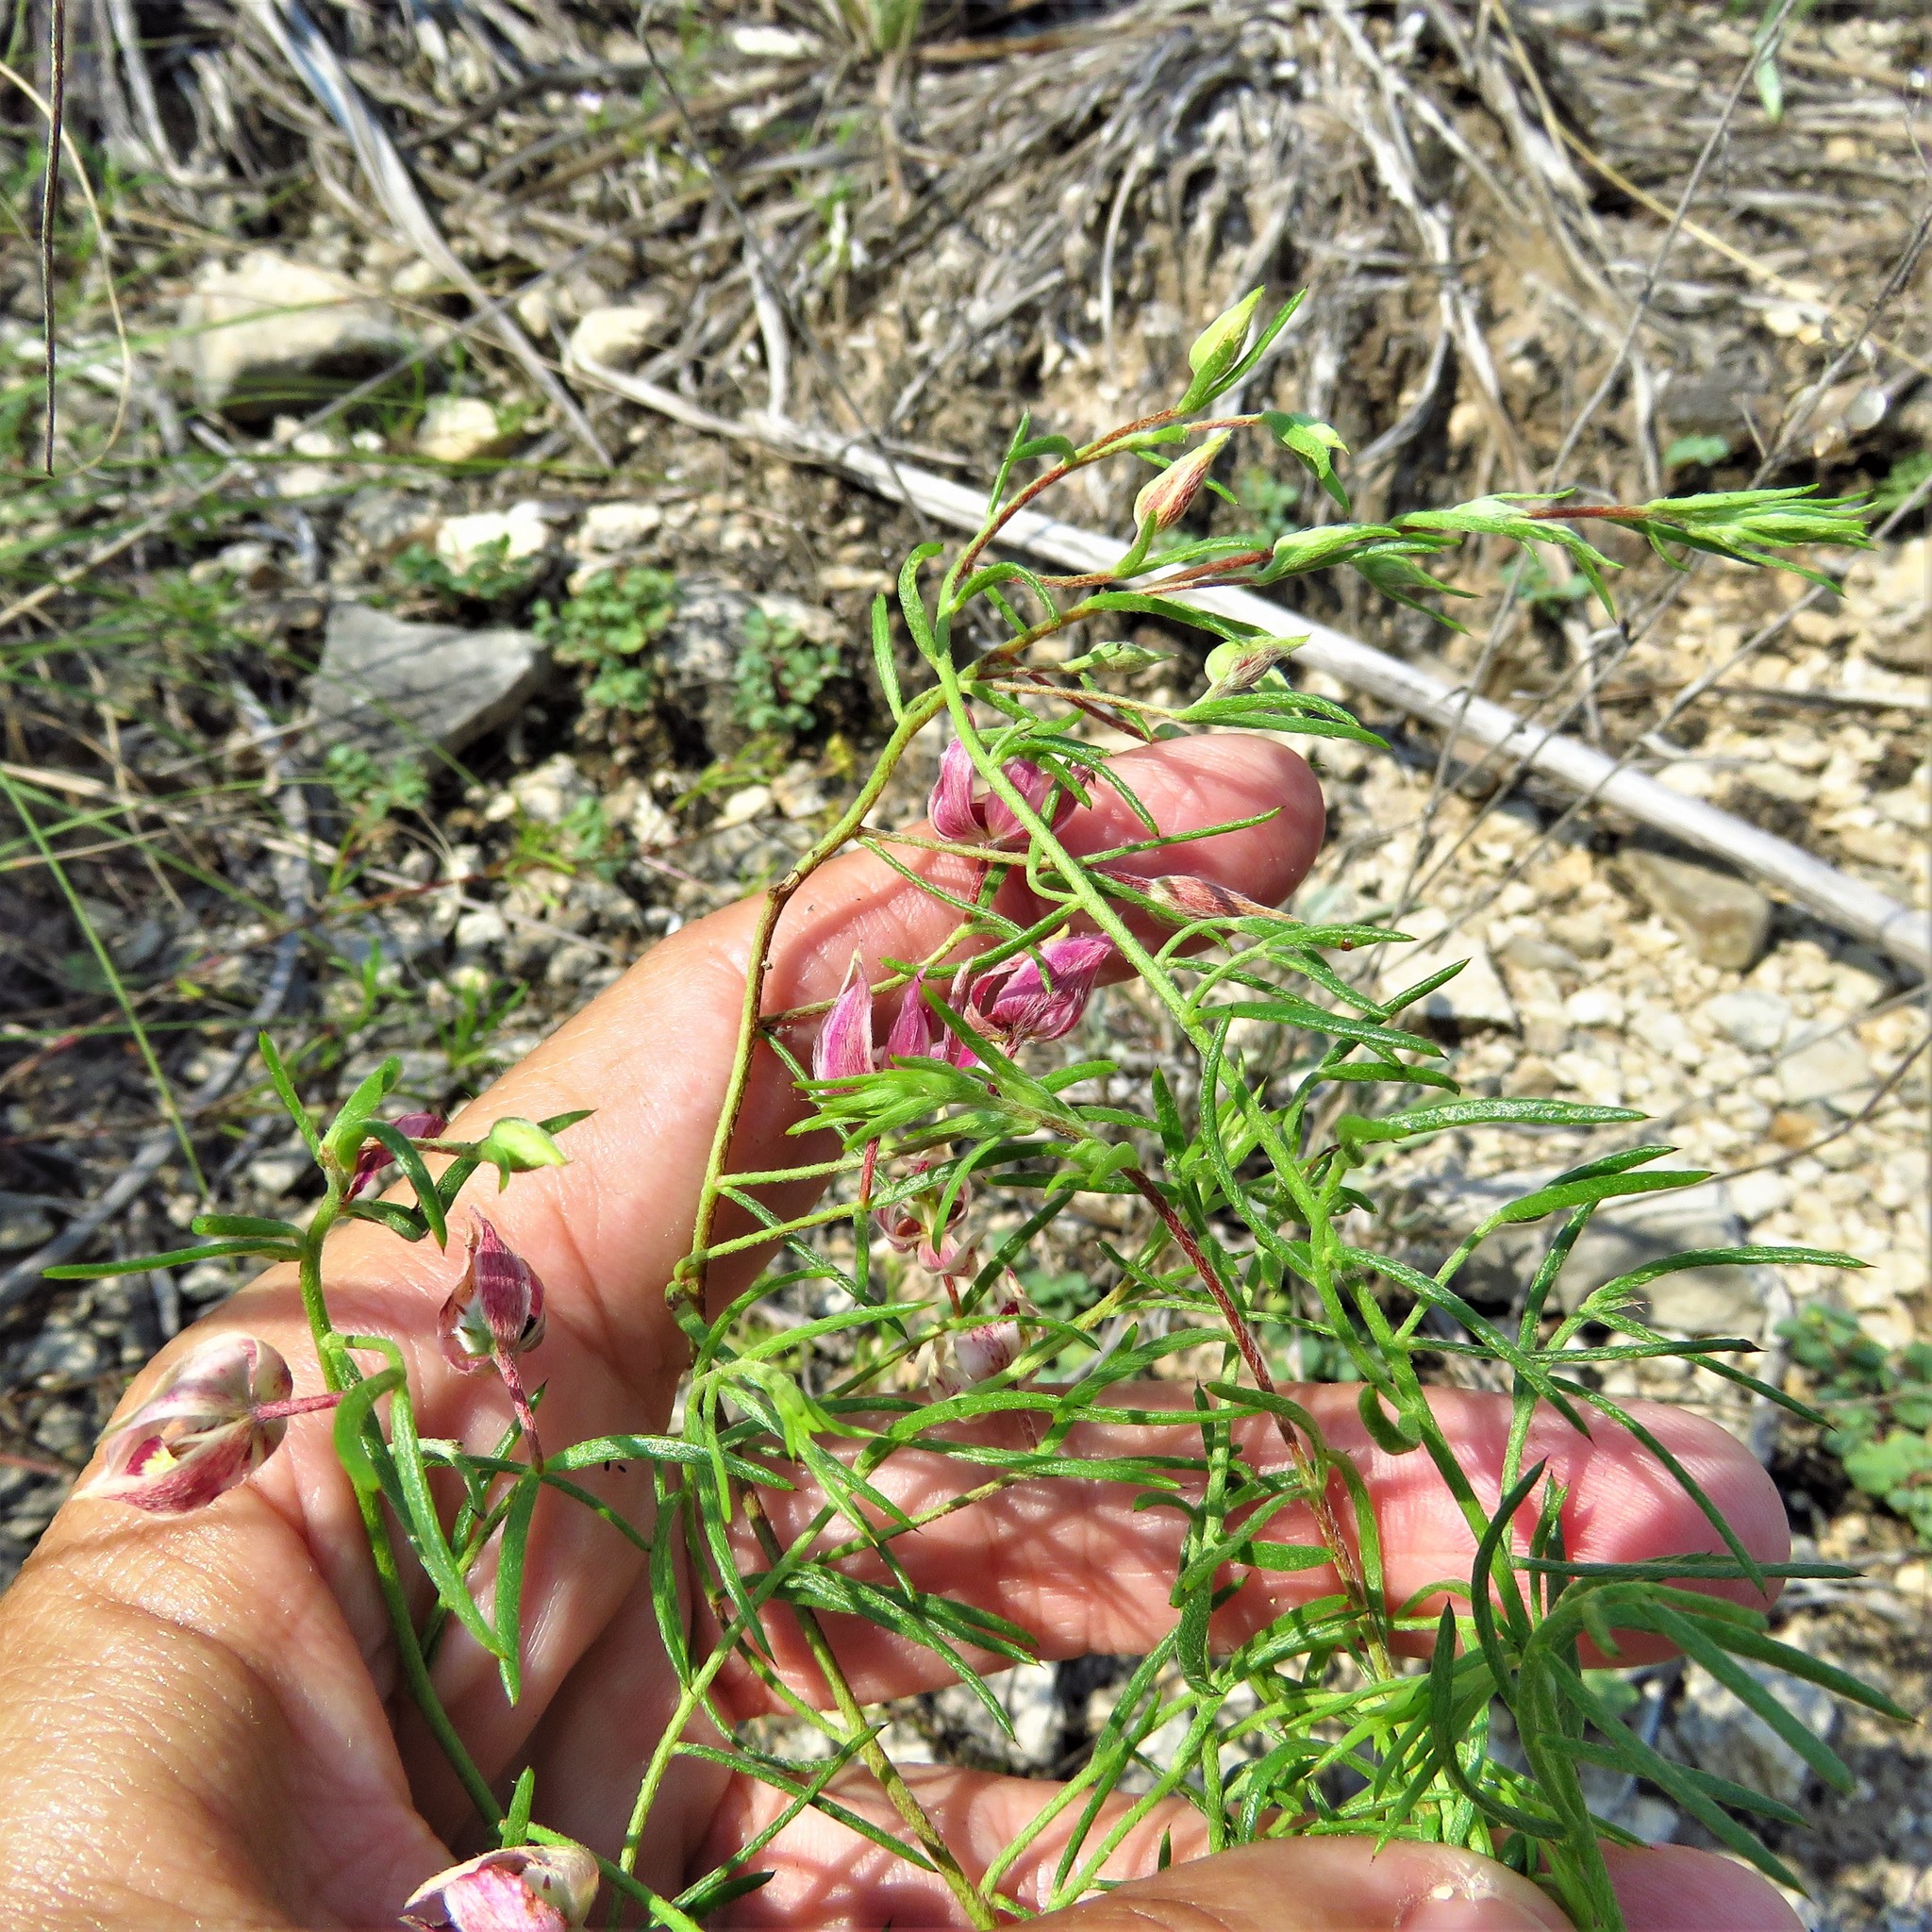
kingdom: Plantae
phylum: Tracheophyta
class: Magnoliopsida
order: Zygophyllales
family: Krameriaceae
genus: Krameria
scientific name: Krameria lanceolata
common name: Ratany
